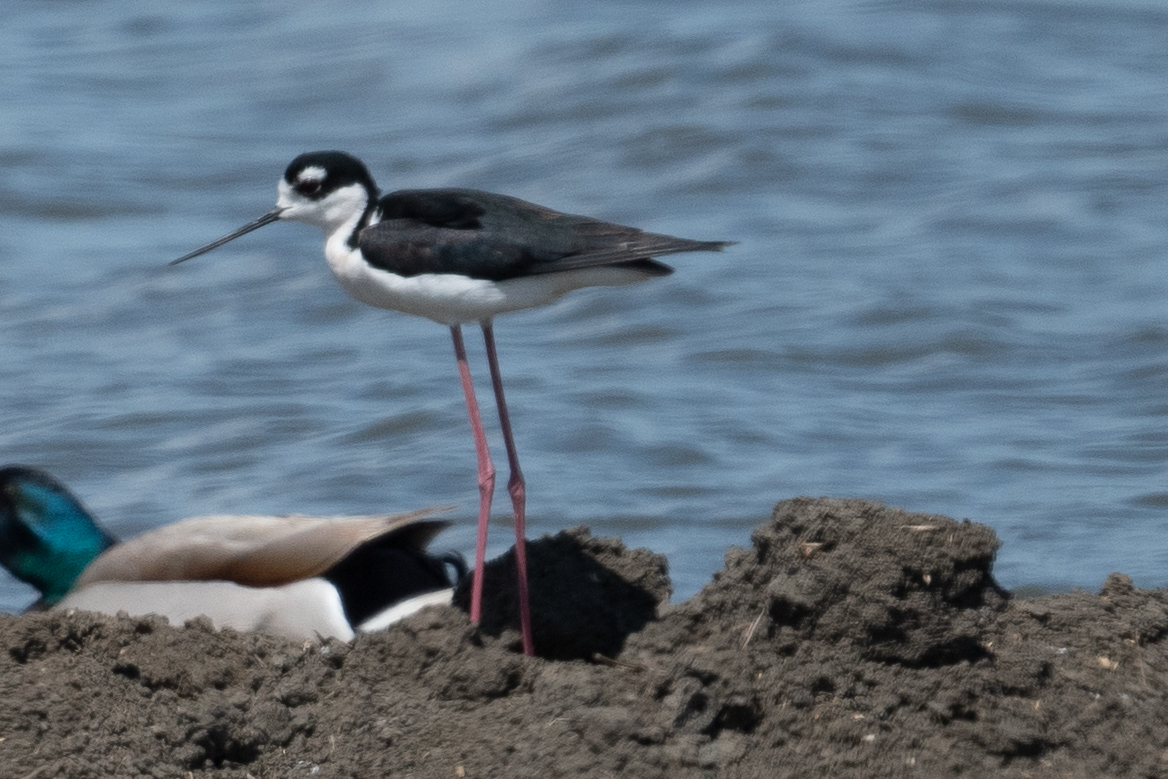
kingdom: Animalia
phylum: Chordata
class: Aves
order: Charadriiformes
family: Recurvirostridae
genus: Himantopus
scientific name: Himantopus mexicanus
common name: Black-necked stilt
